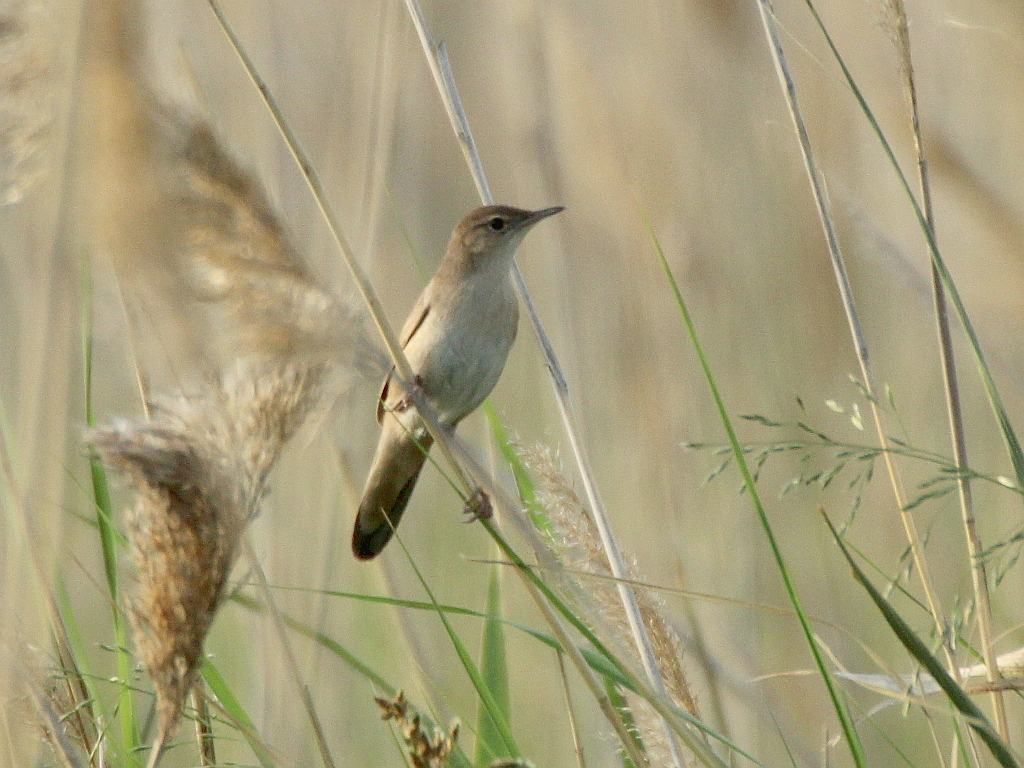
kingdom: Animalia
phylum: Chordata
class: Aves
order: Passeriformes
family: Locustellidae
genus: Locustella
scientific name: Locustella luscinioides
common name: Savi's warbler
